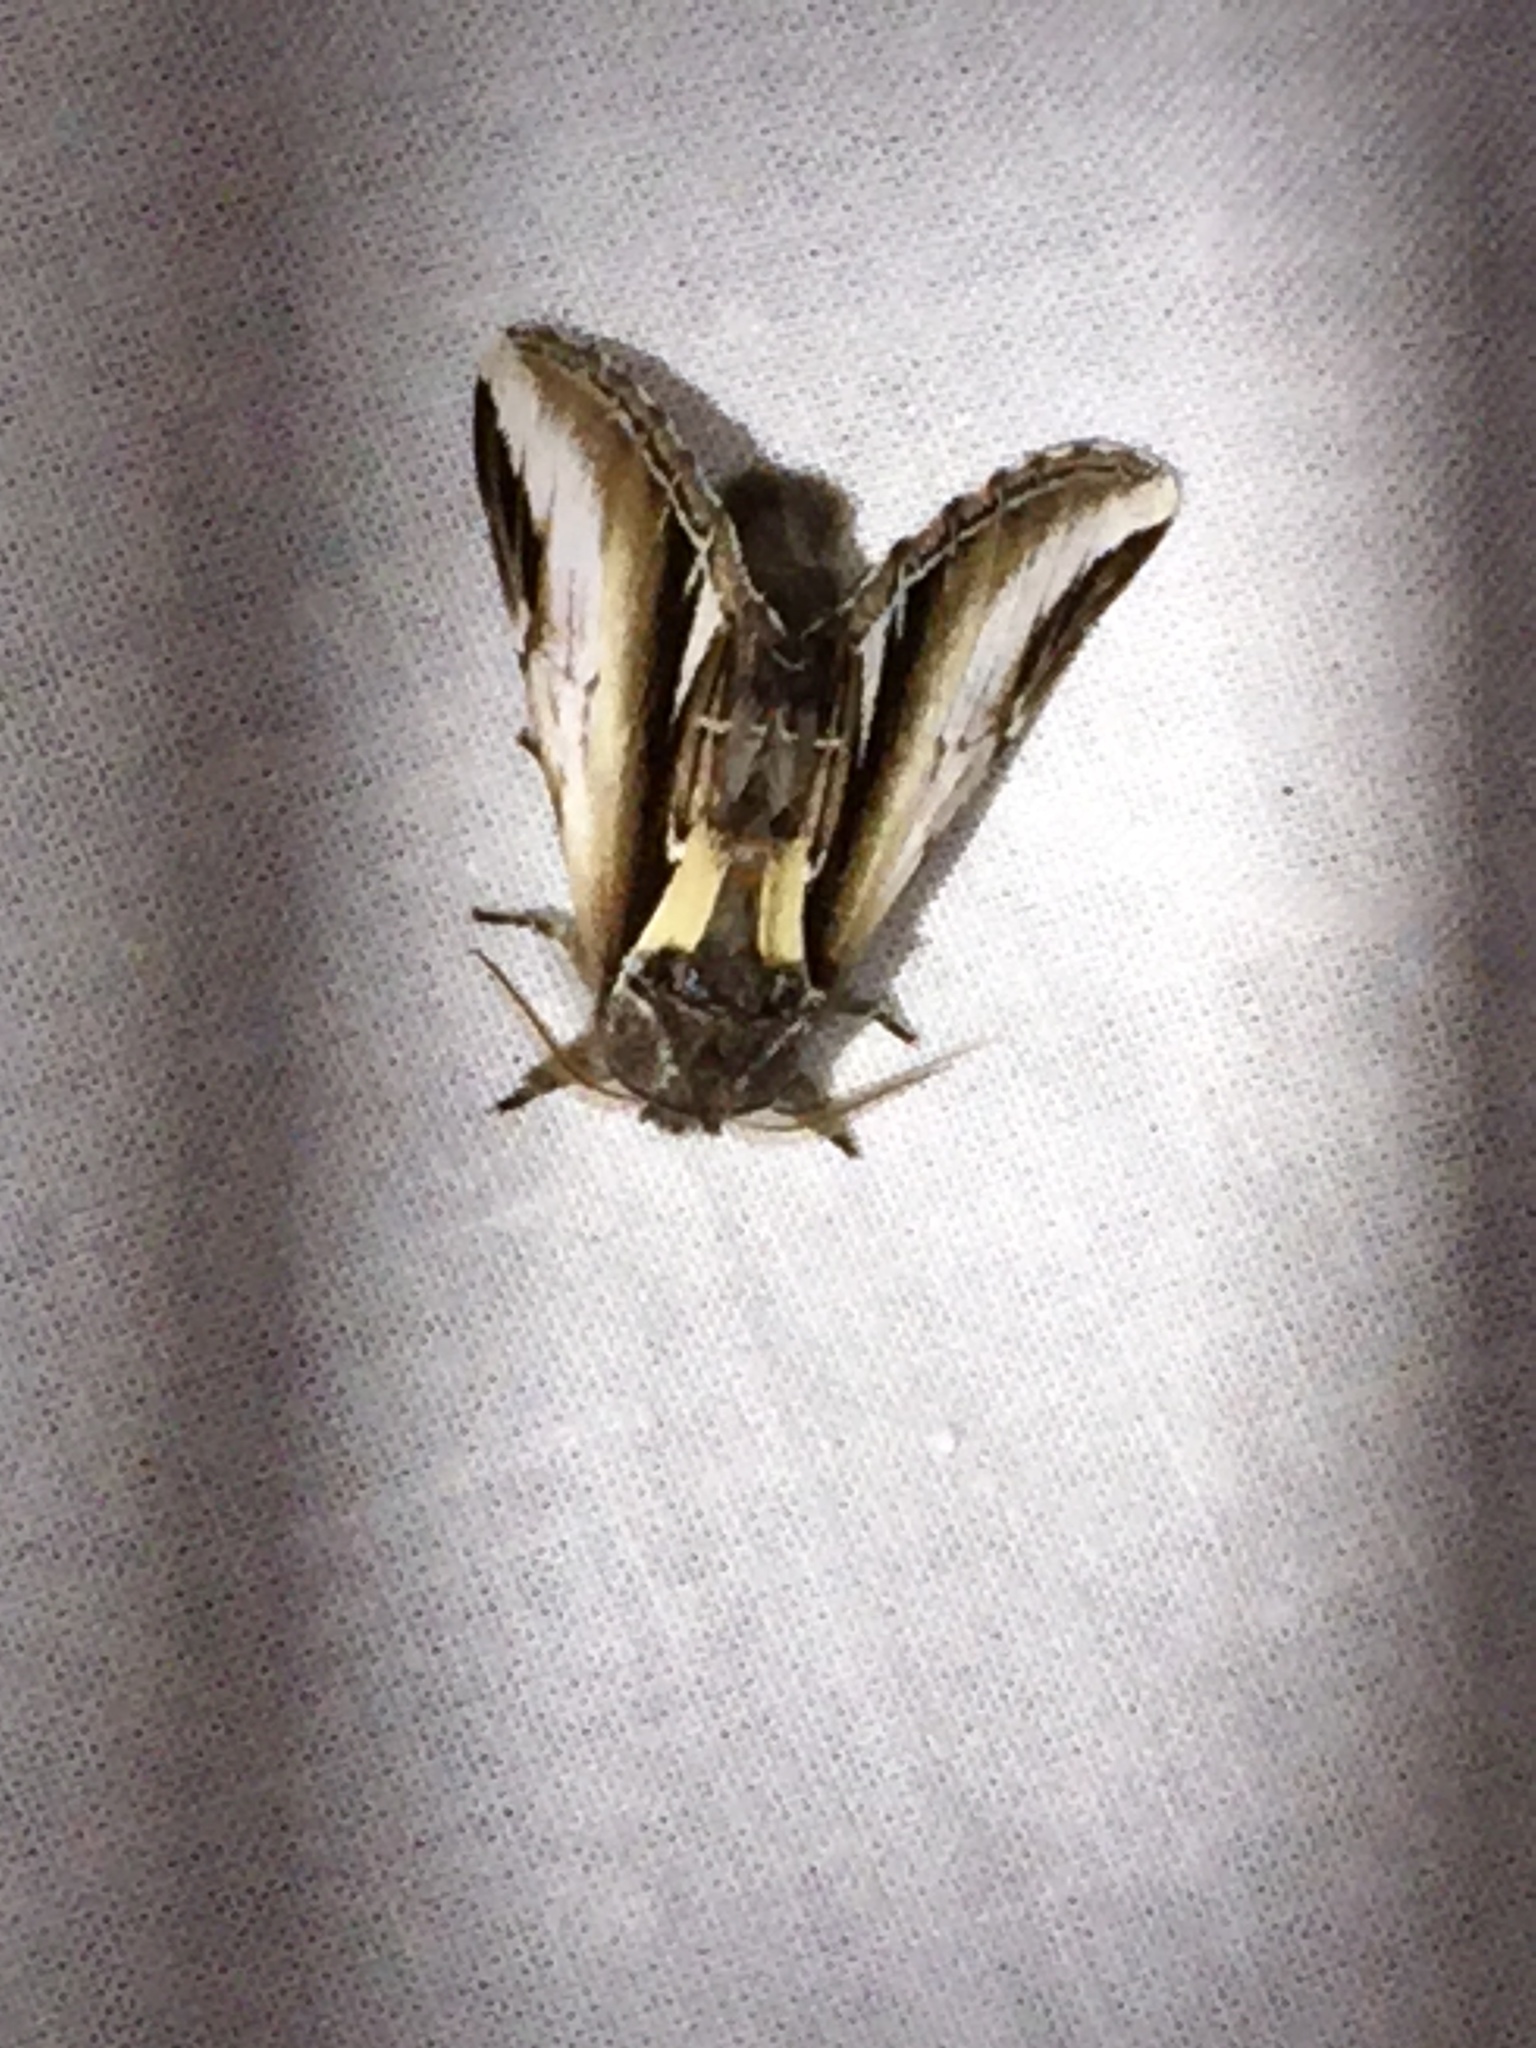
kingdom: Animalia
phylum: Arthropoda
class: Insecta
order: Lepidoptera
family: Notodontidae
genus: Pheosia
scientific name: Pheosia gnoma
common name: Lesser swallow prominent
